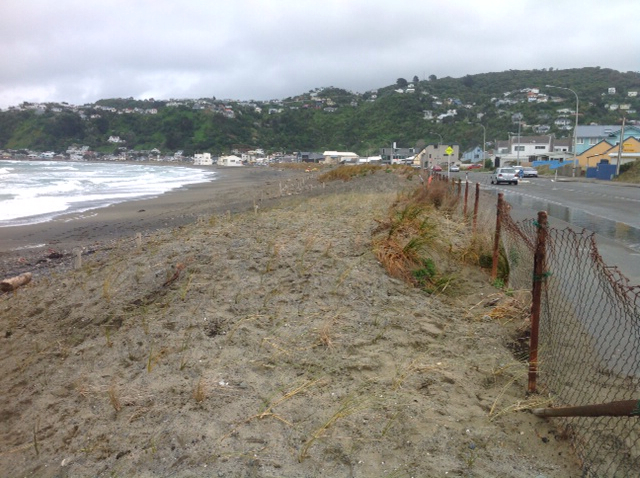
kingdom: Plantae
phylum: Tracheophyta
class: Liliopsida
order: Poales
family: Cyperaceae
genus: Ficinia
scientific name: Ficinia spiralis
